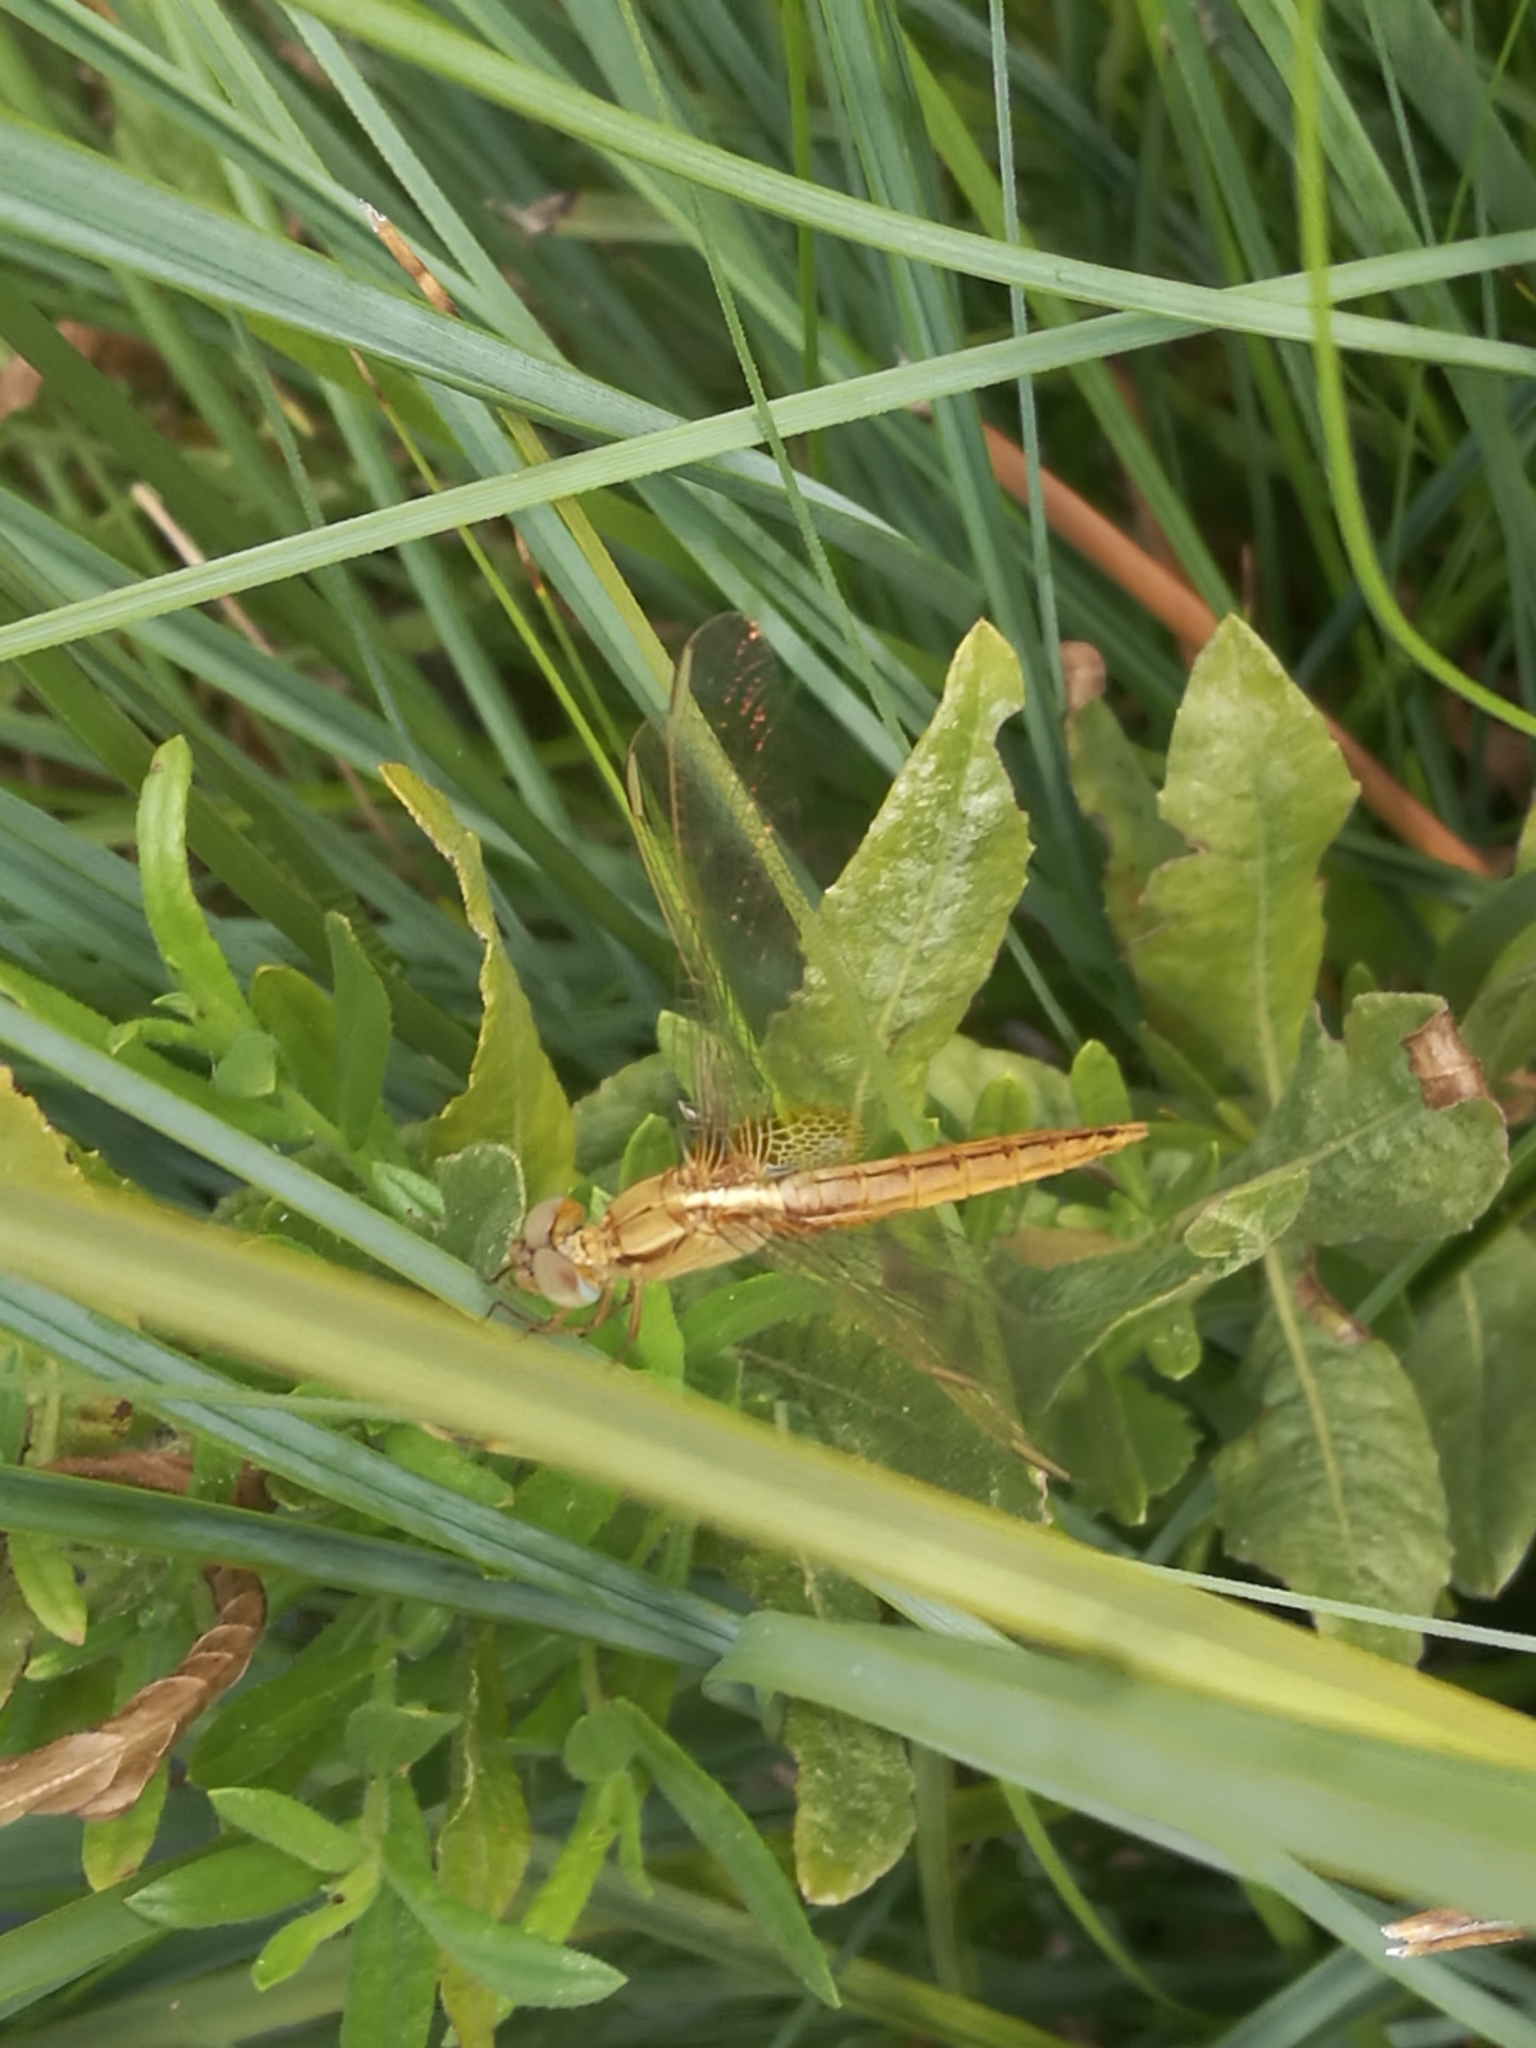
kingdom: Animalia
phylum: Arthropoda
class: Insecta
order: Odonata
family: Libellulidae
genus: Crocothemis
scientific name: Crocothemis erythraea
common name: Scarlet dragonfly
